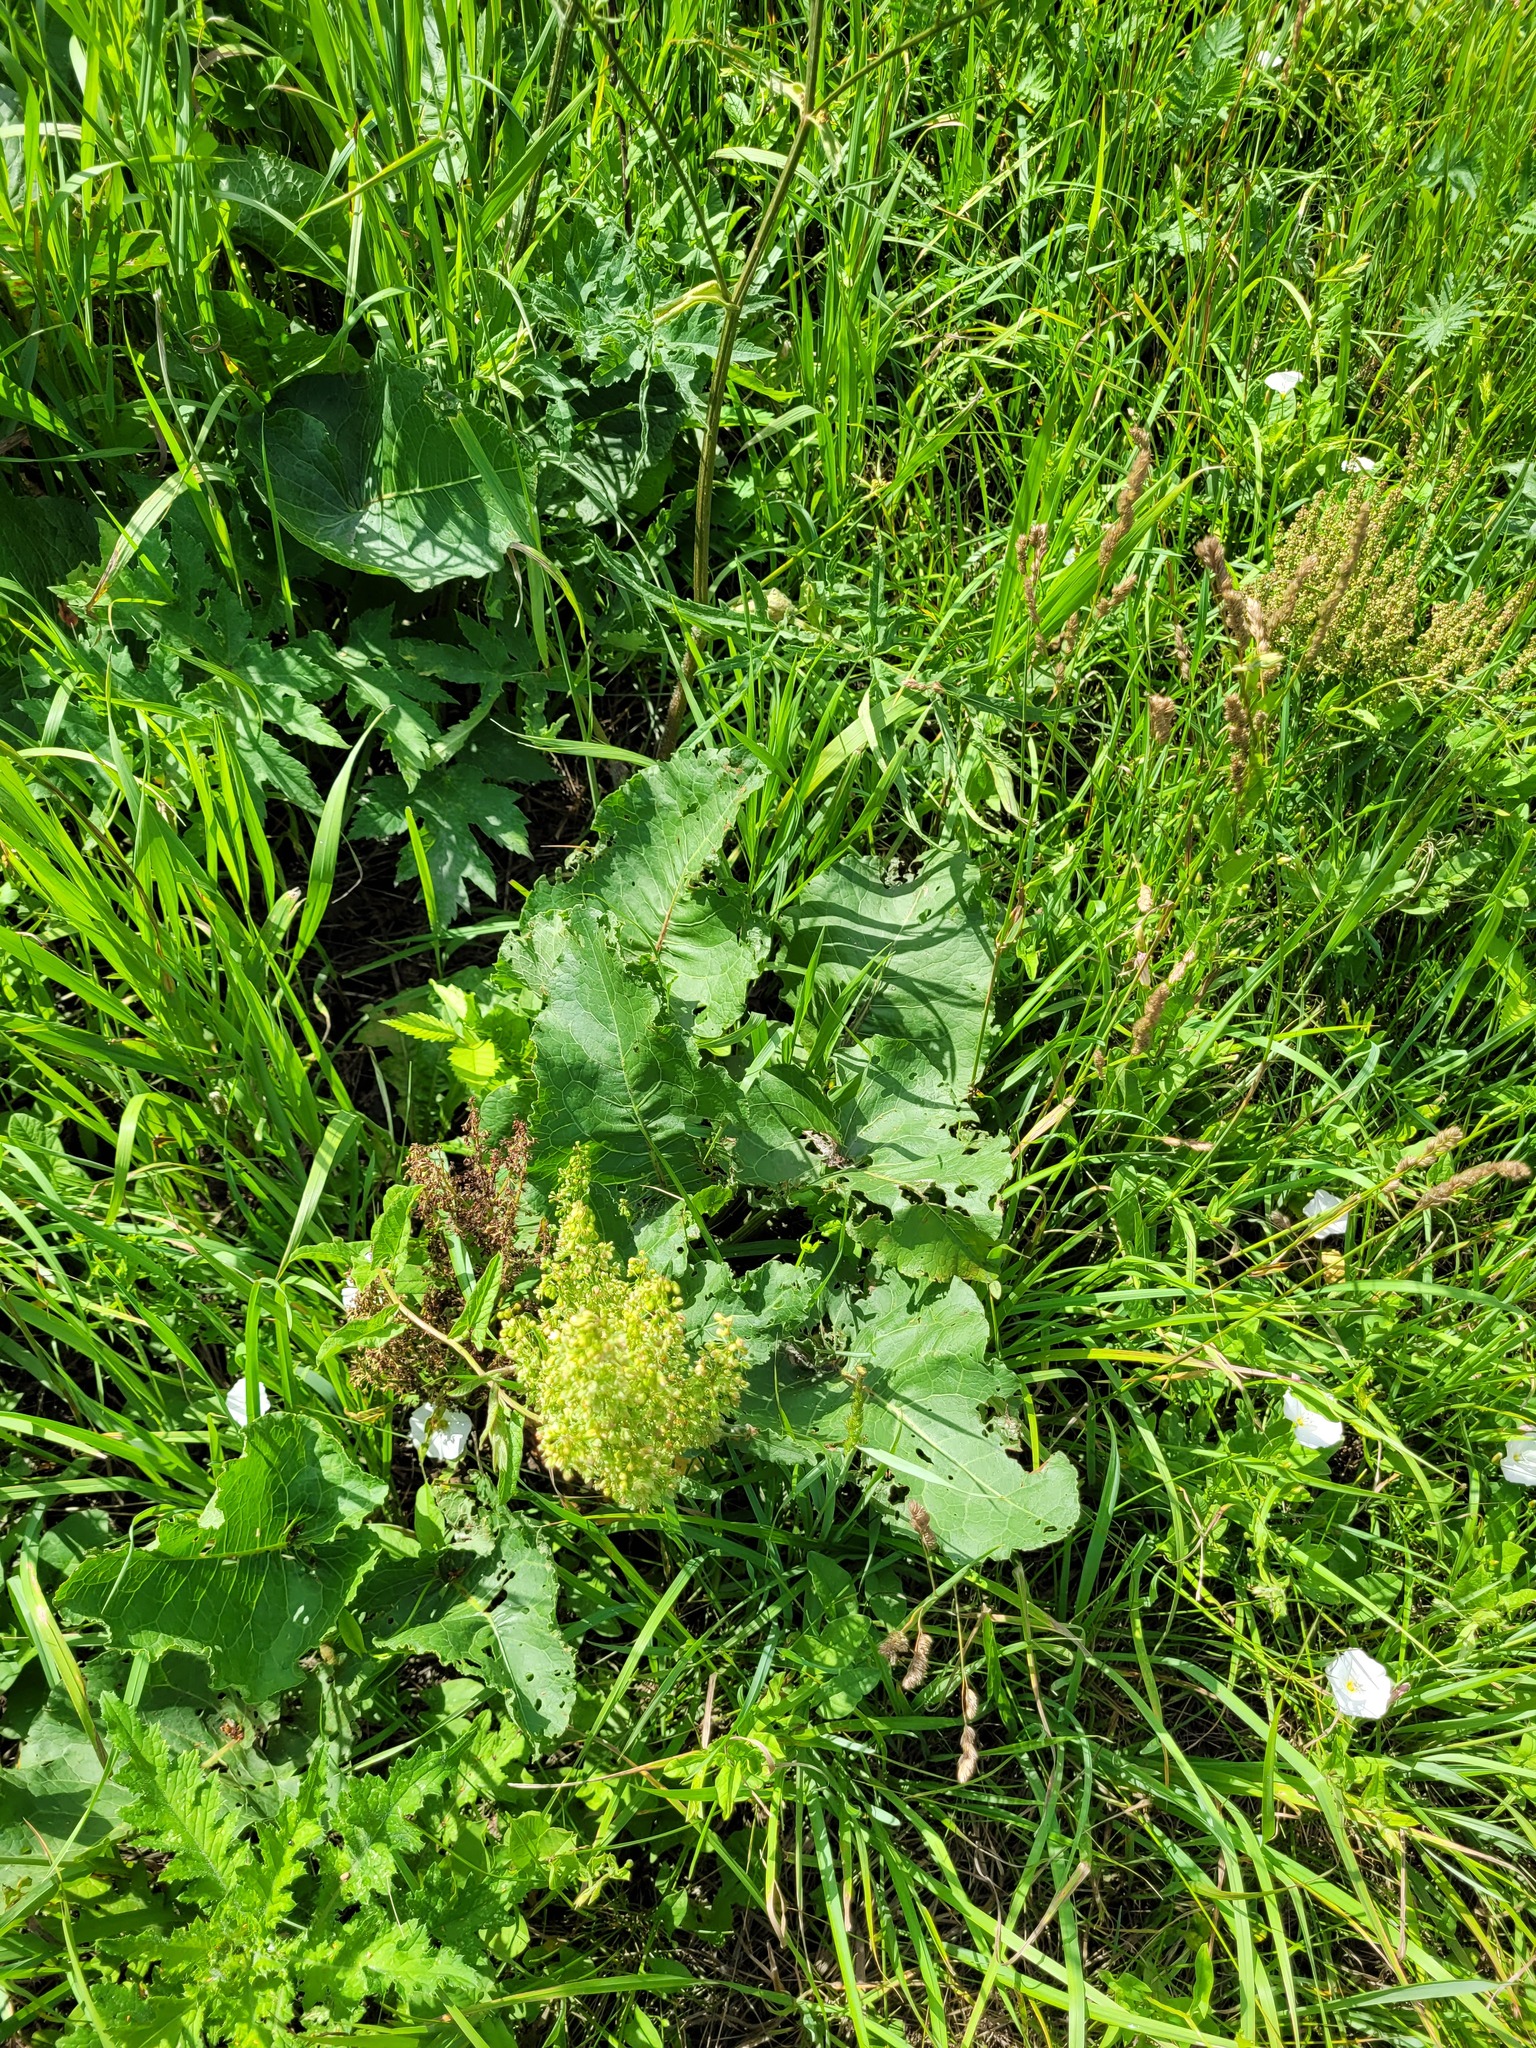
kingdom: Plantae
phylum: Tracheophyta
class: Magnoliopsida
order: Caryophyllales
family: Polygonaceae
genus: Rumex
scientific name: Rumex confertus
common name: Russian dock
